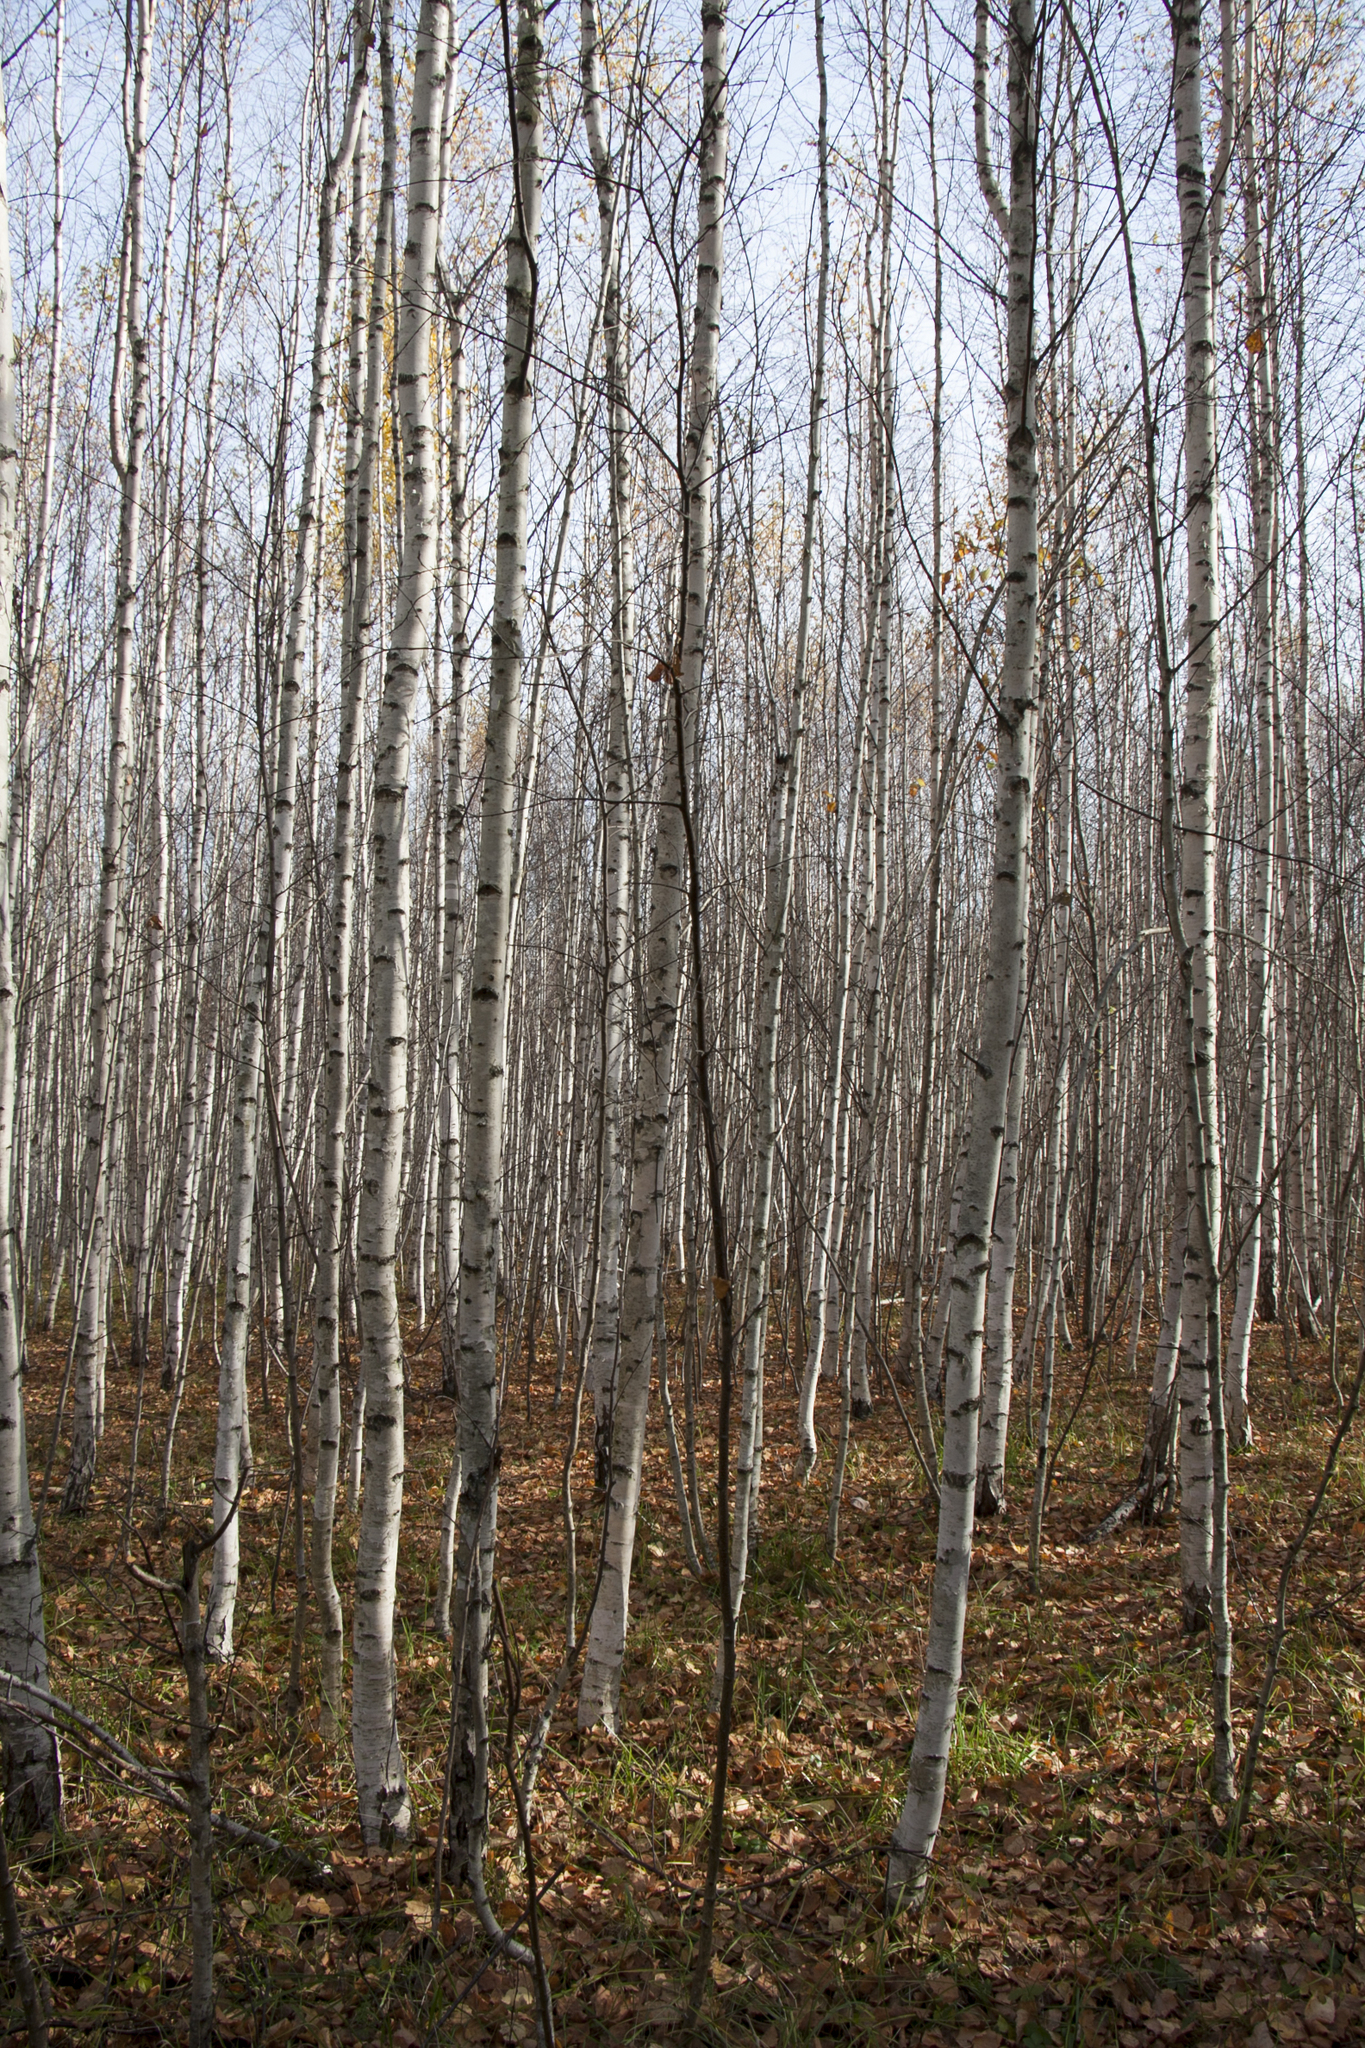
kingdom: Plantae
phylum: Tracheophyta
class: Magnoliopsida
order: Fagales
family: Betulaceae
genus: Betula
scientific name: Betula pendula
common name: Silver birch
